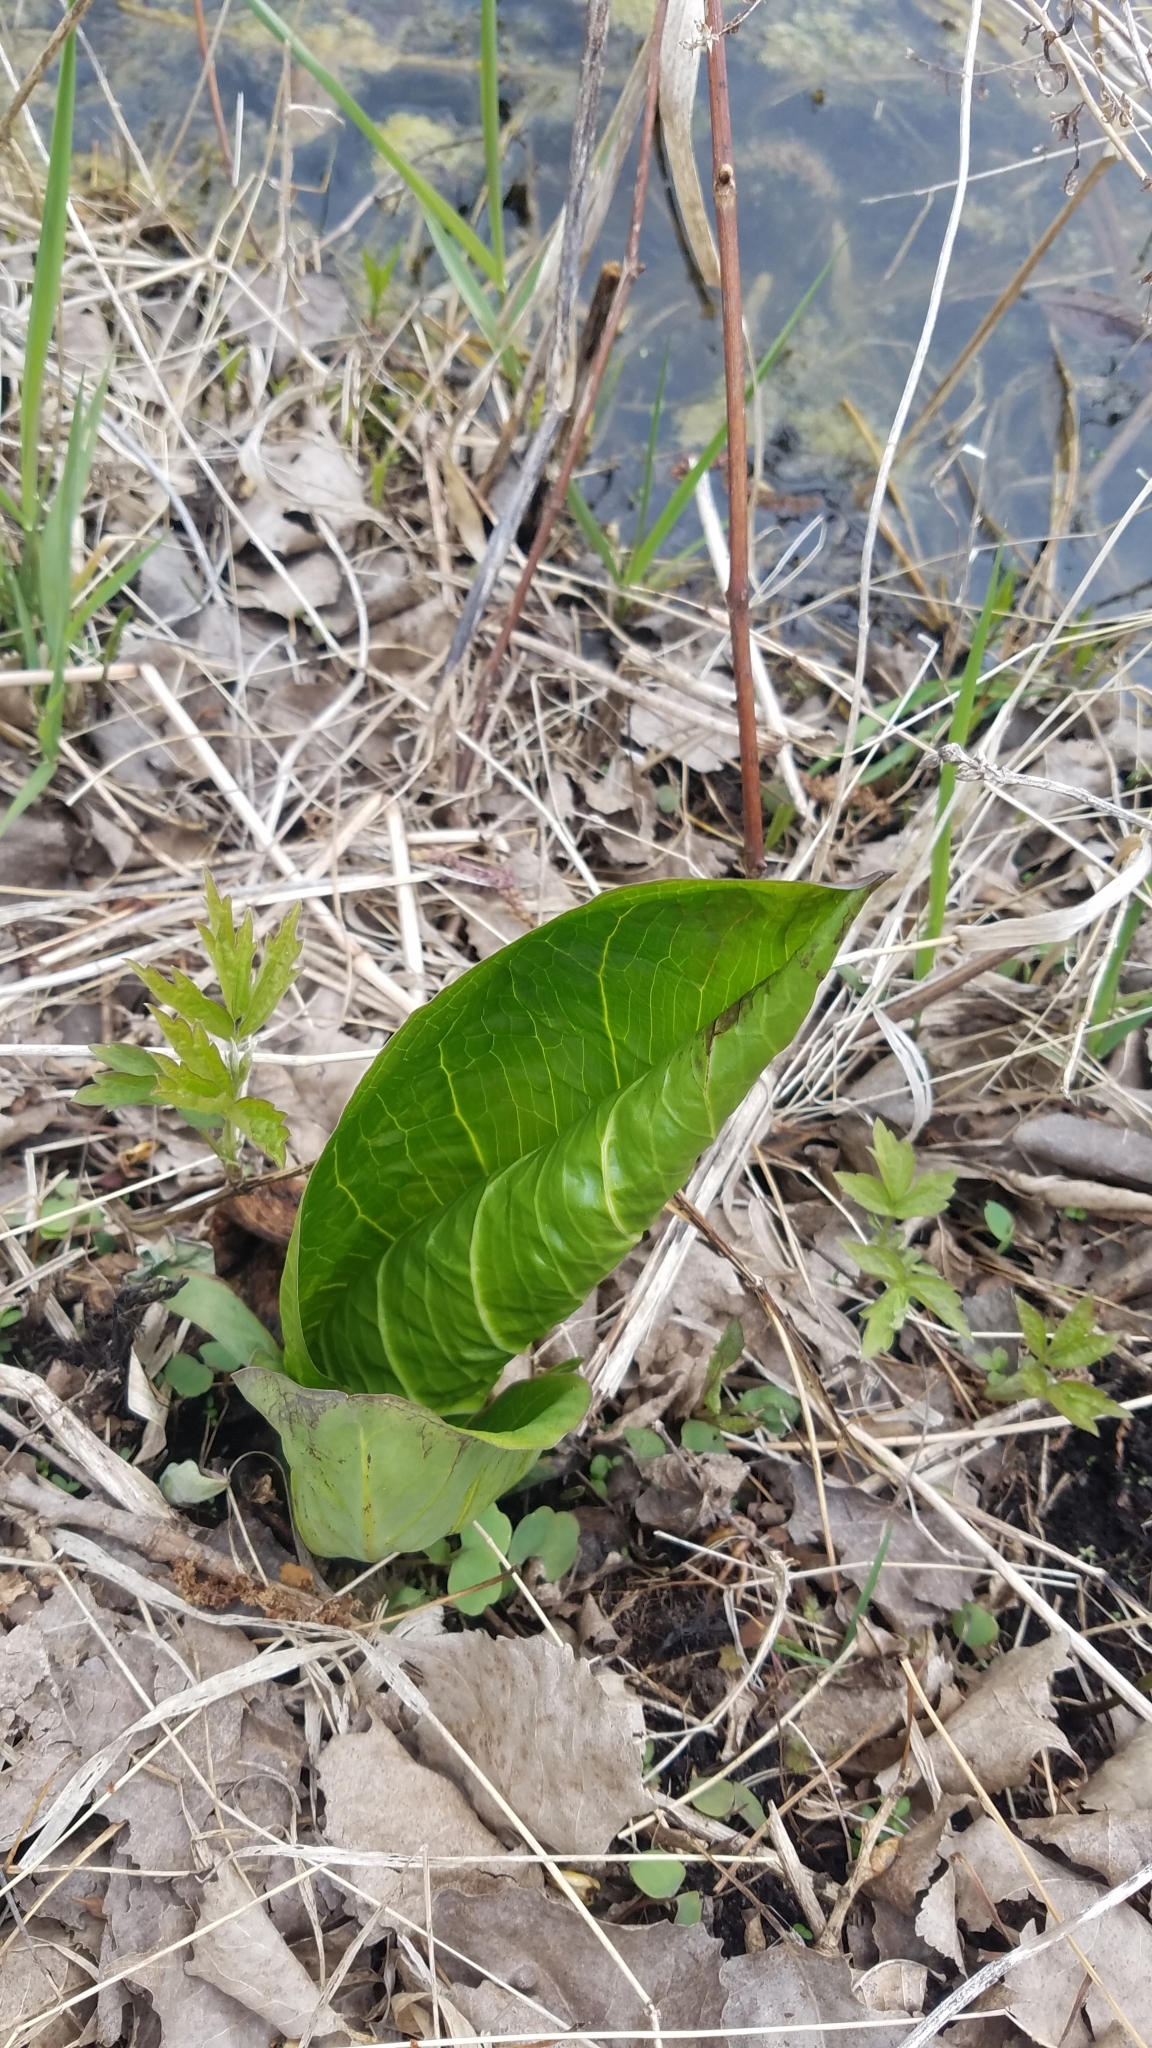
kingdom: Plantae
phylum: Tracheophyta
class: Liliopsida
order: Alismatales
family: Araceae
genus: Symplocarpus
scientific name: Symplocarpus foetidus
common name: Eastern skunk cabbage
